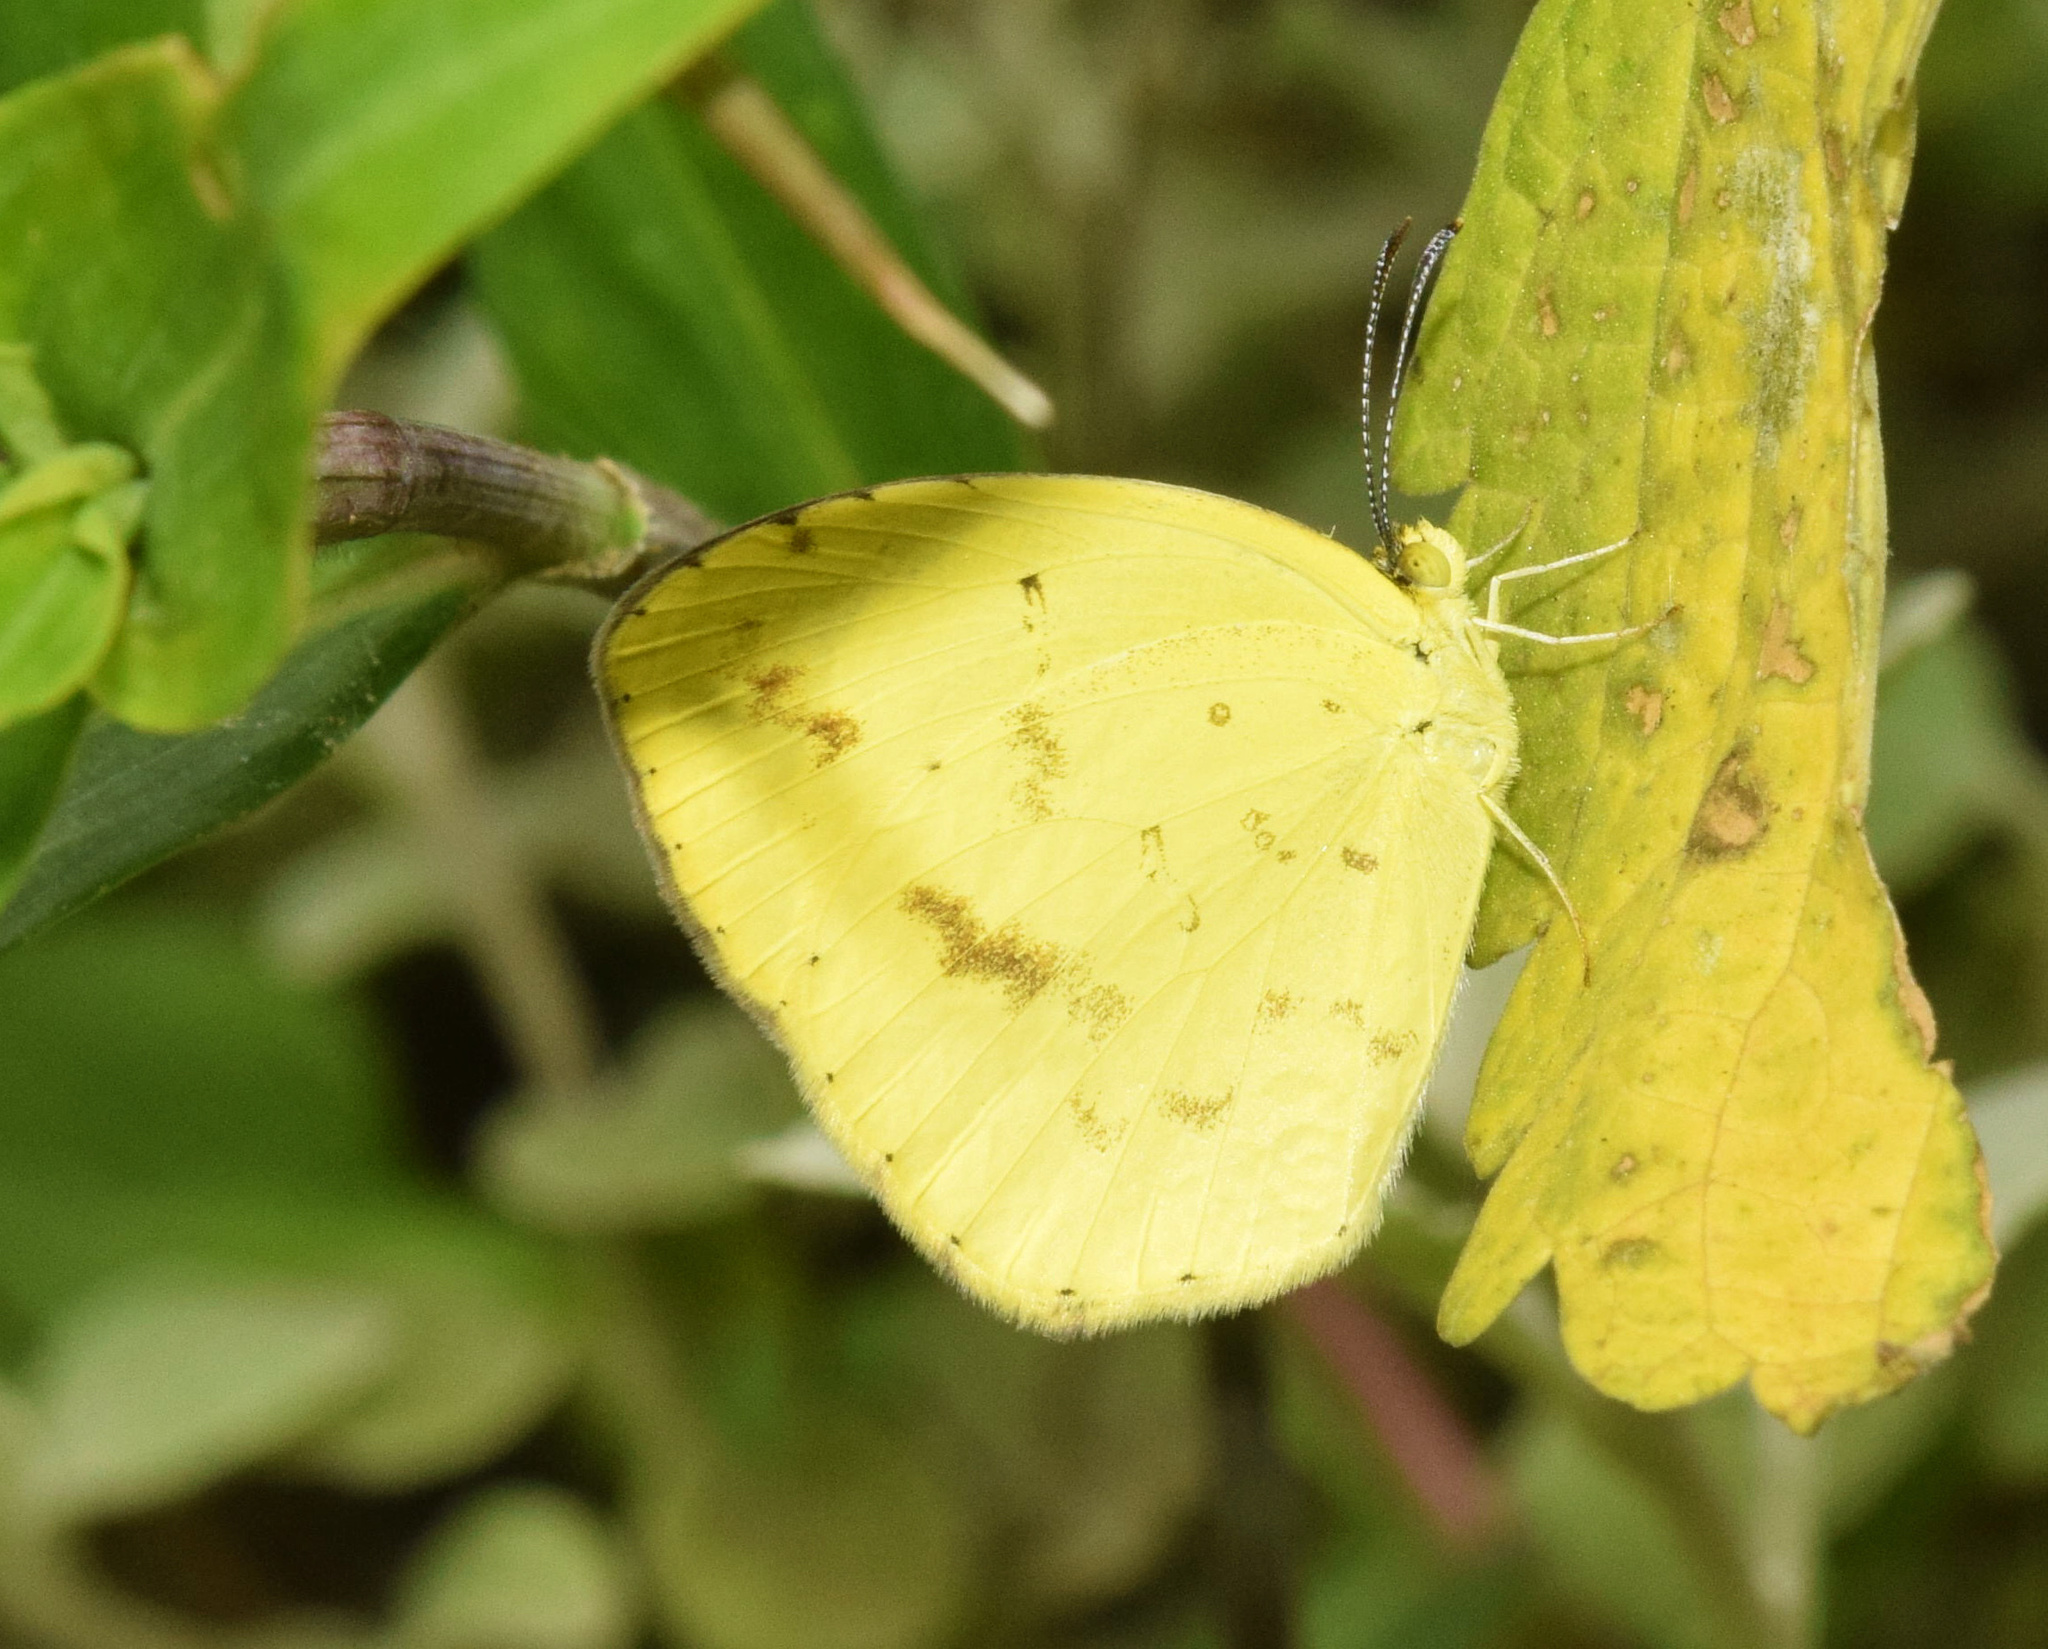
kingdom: Animalia
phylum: Arthropoda
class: Insecta
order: Lepidoptera
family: Pieridae
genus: Eurema
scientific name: Eurema regularis
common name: Regular grass yellow
